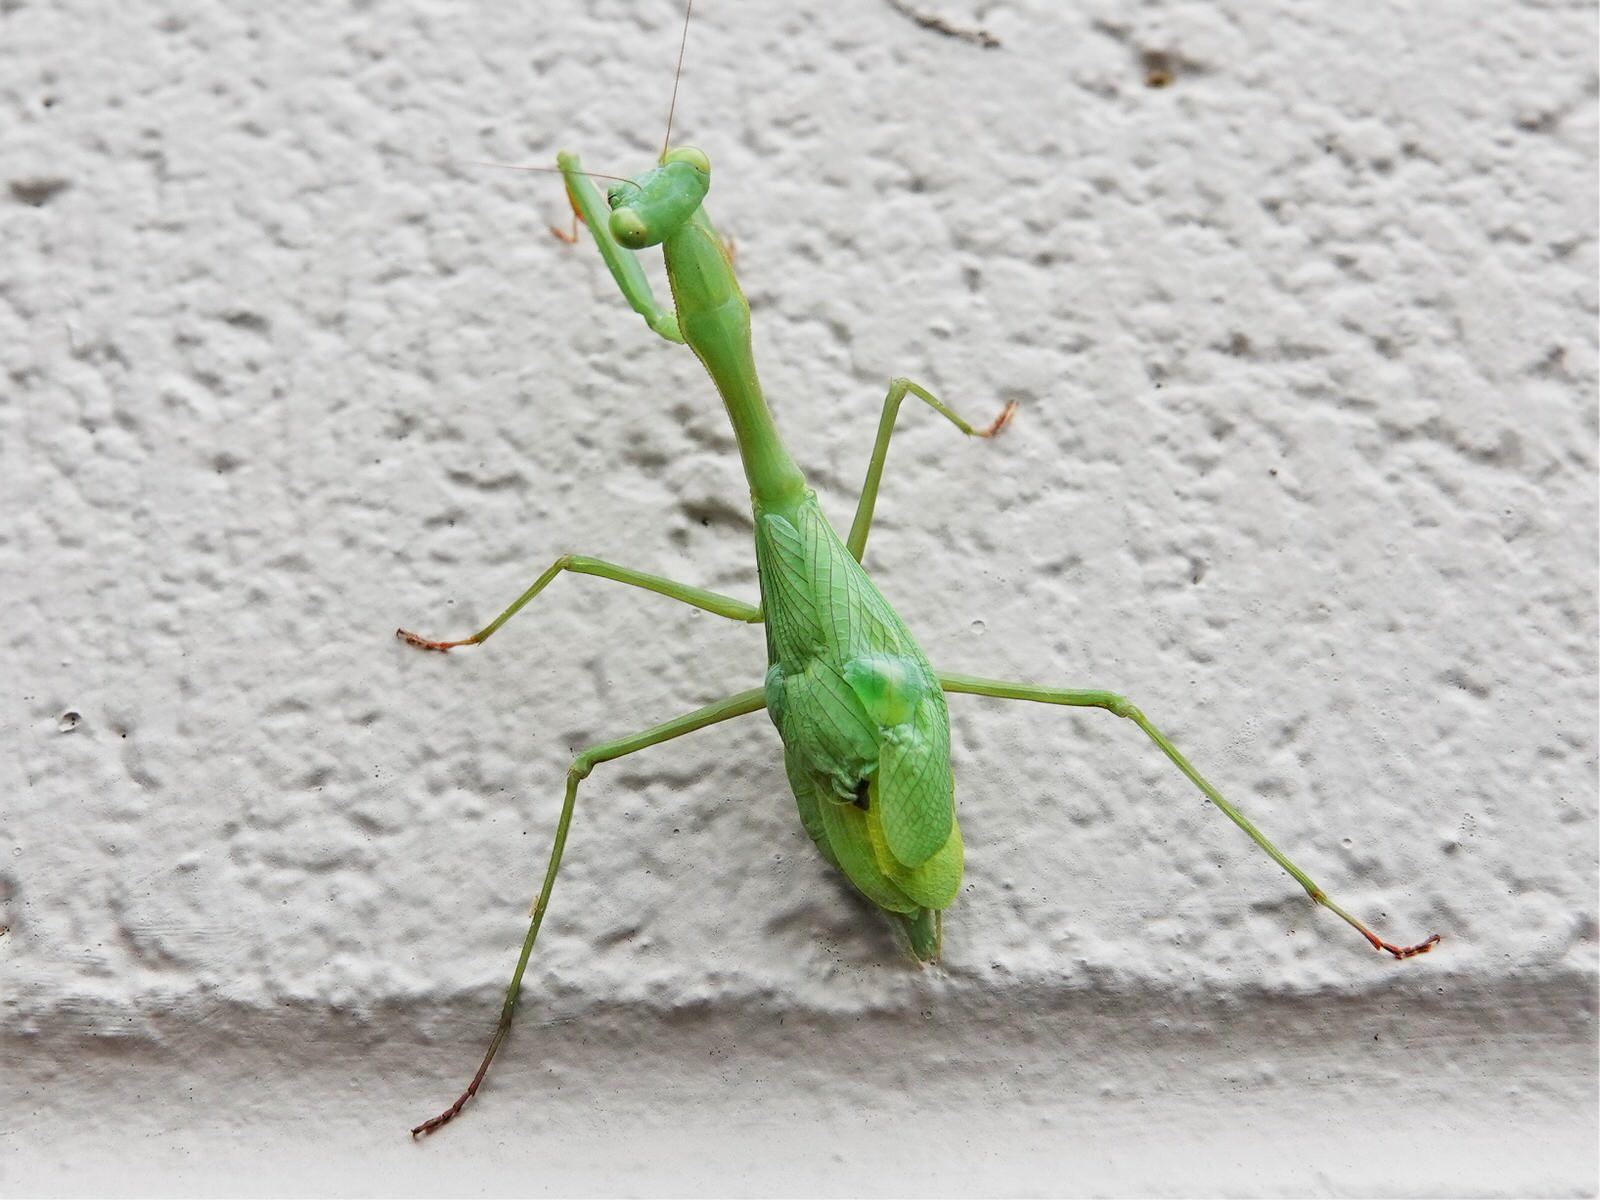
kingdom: Animalia
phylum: Arthropoda
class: Insecta
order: Mantodea
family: Miomantidae
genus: Miomantis
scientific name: Miomantis caffra
